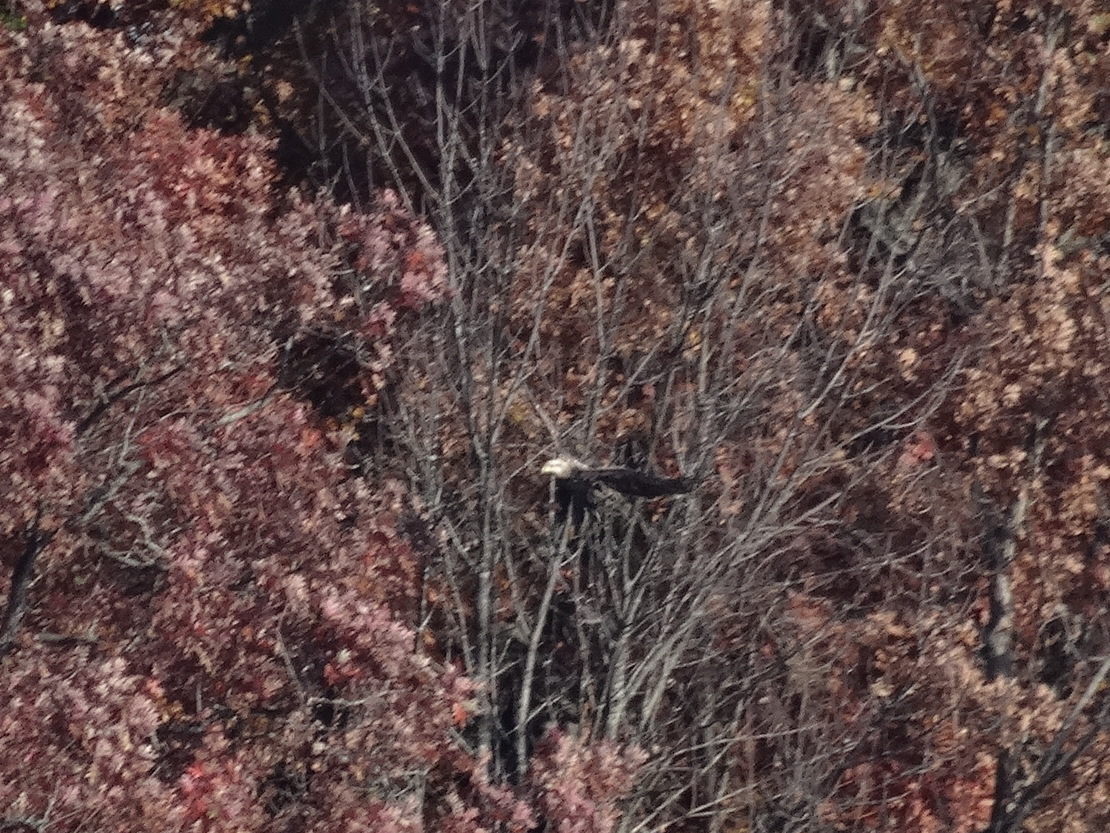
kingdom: Animalia
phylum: Chordata
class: Aves
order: Accipitriformes
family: Accipitridae
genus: Haliaeetus
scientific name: Haliaeetus leucocephalus
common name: Bald eagle
